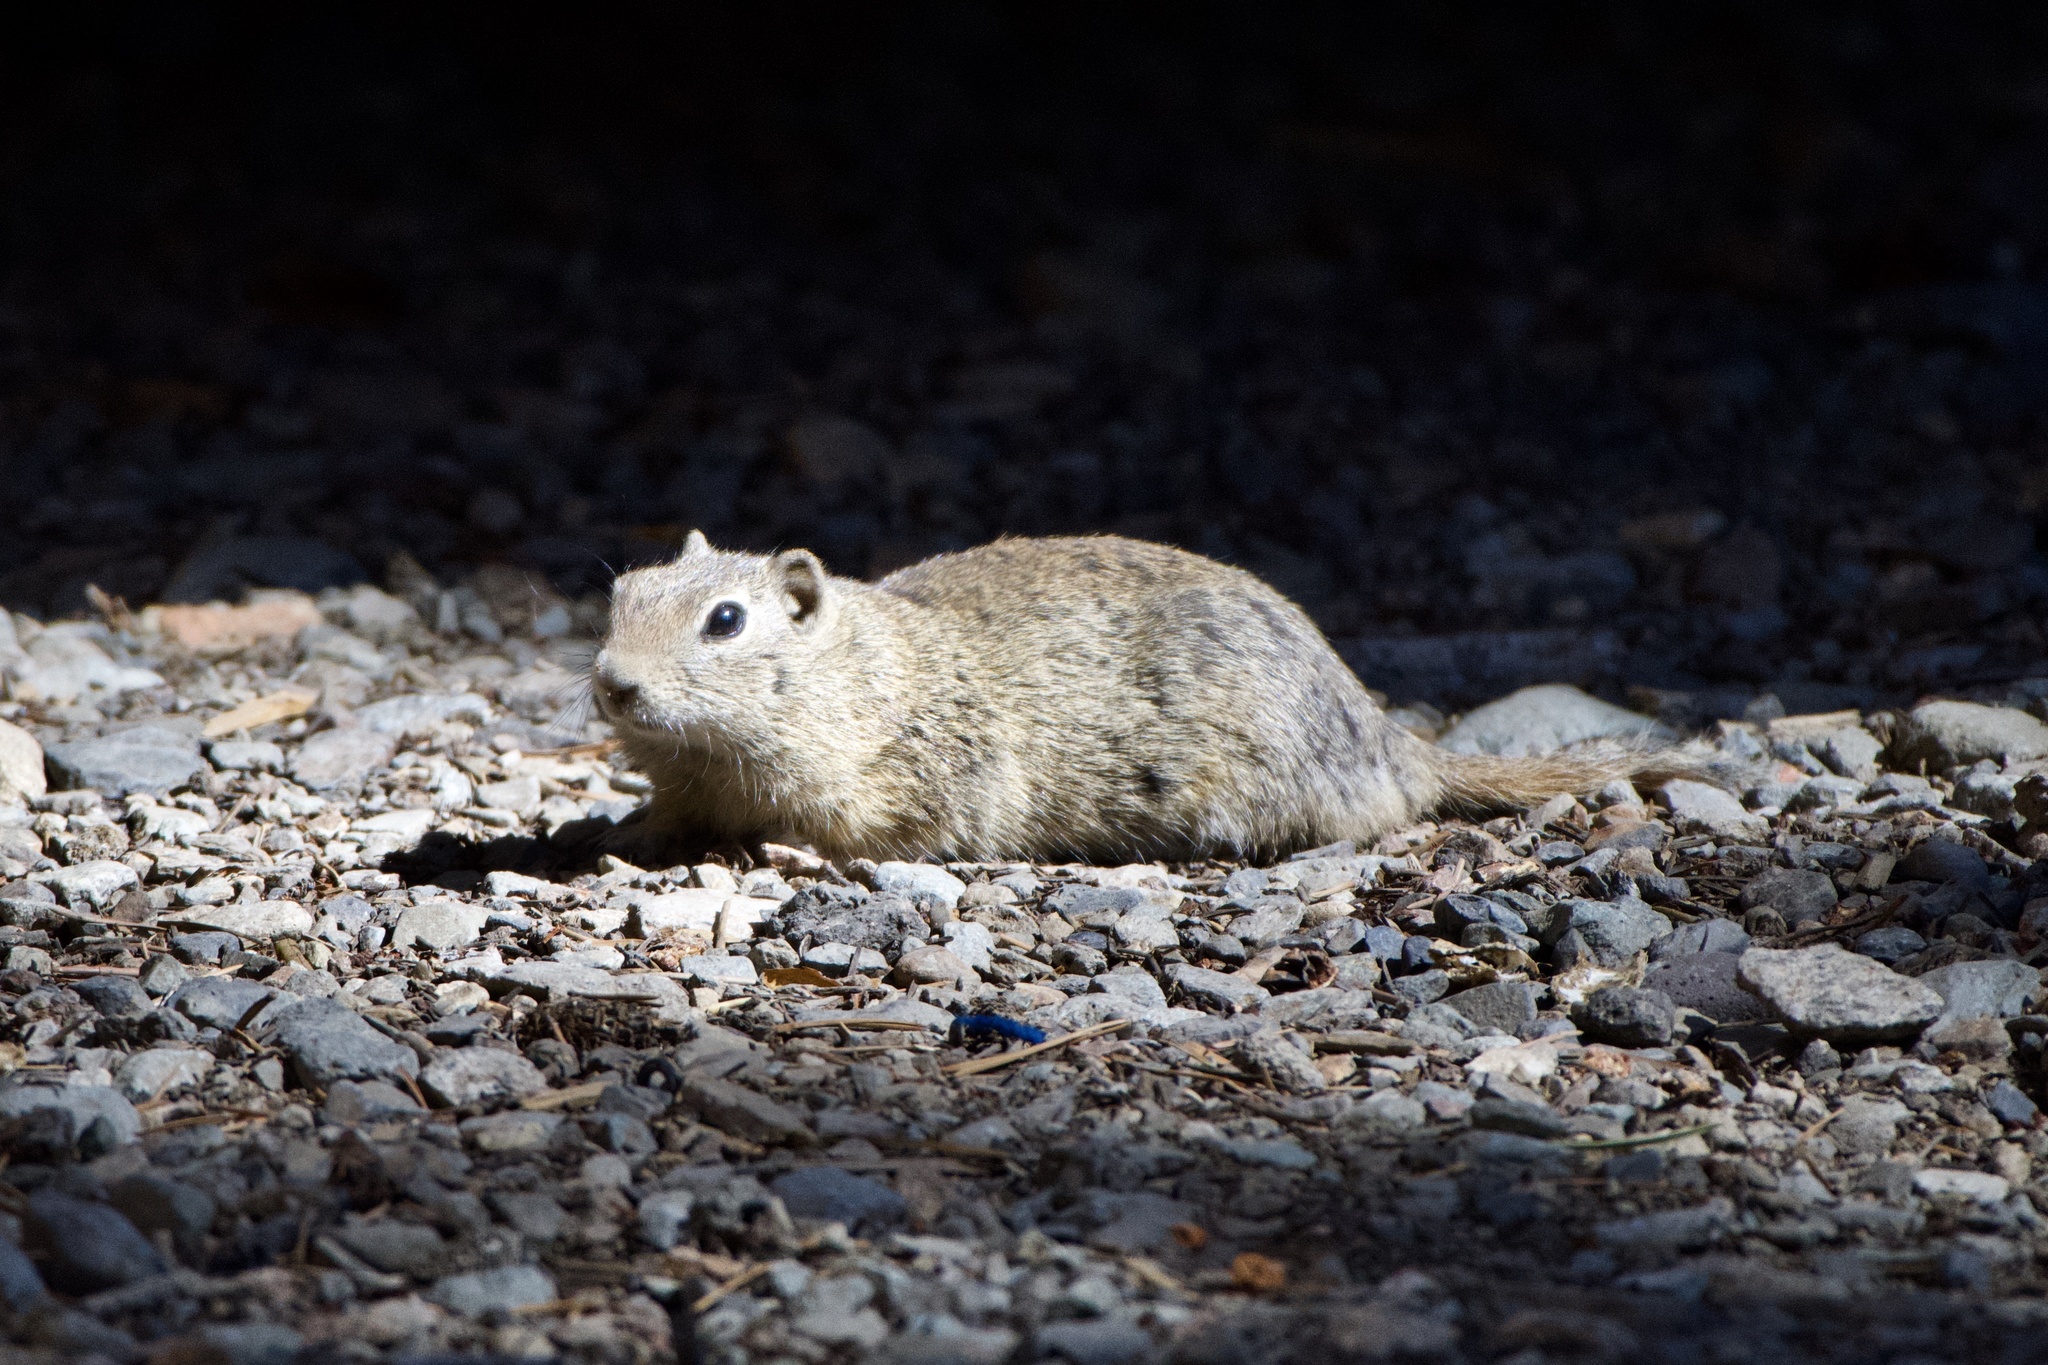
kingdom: Animalia
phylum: Chordata
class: Mammalia
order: Rodentia
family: Sciuridae
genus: Urocitellus
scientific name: Urocitellus beldingi
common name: Belding's ground squirrel
